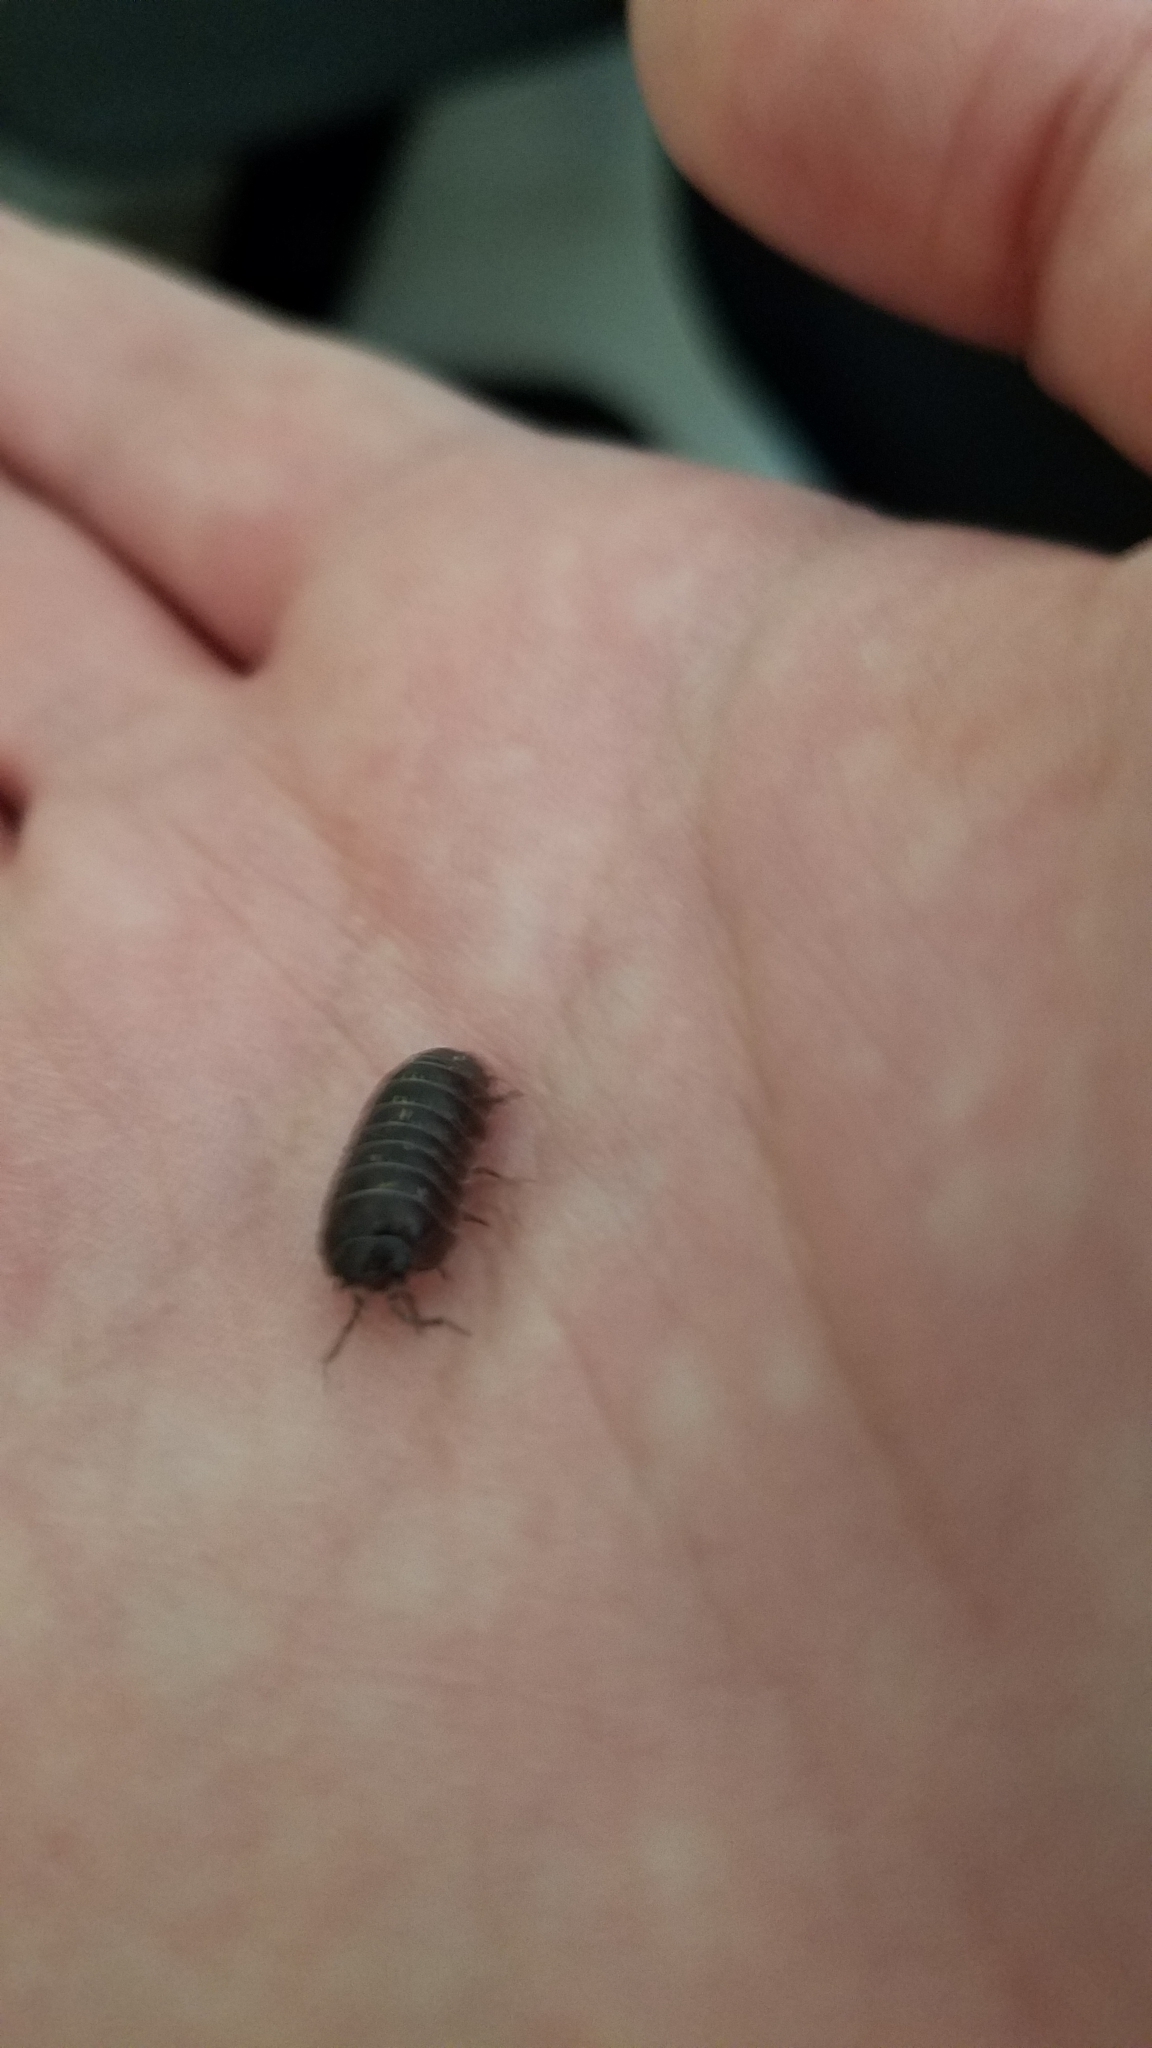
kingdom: Animalia
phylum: Arthropoda
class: Malacostraca
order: Isopoda
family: Armadillidiidae
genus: Armadillidium
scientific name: Armadillidium vulgare
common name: Common pill woodlouse
